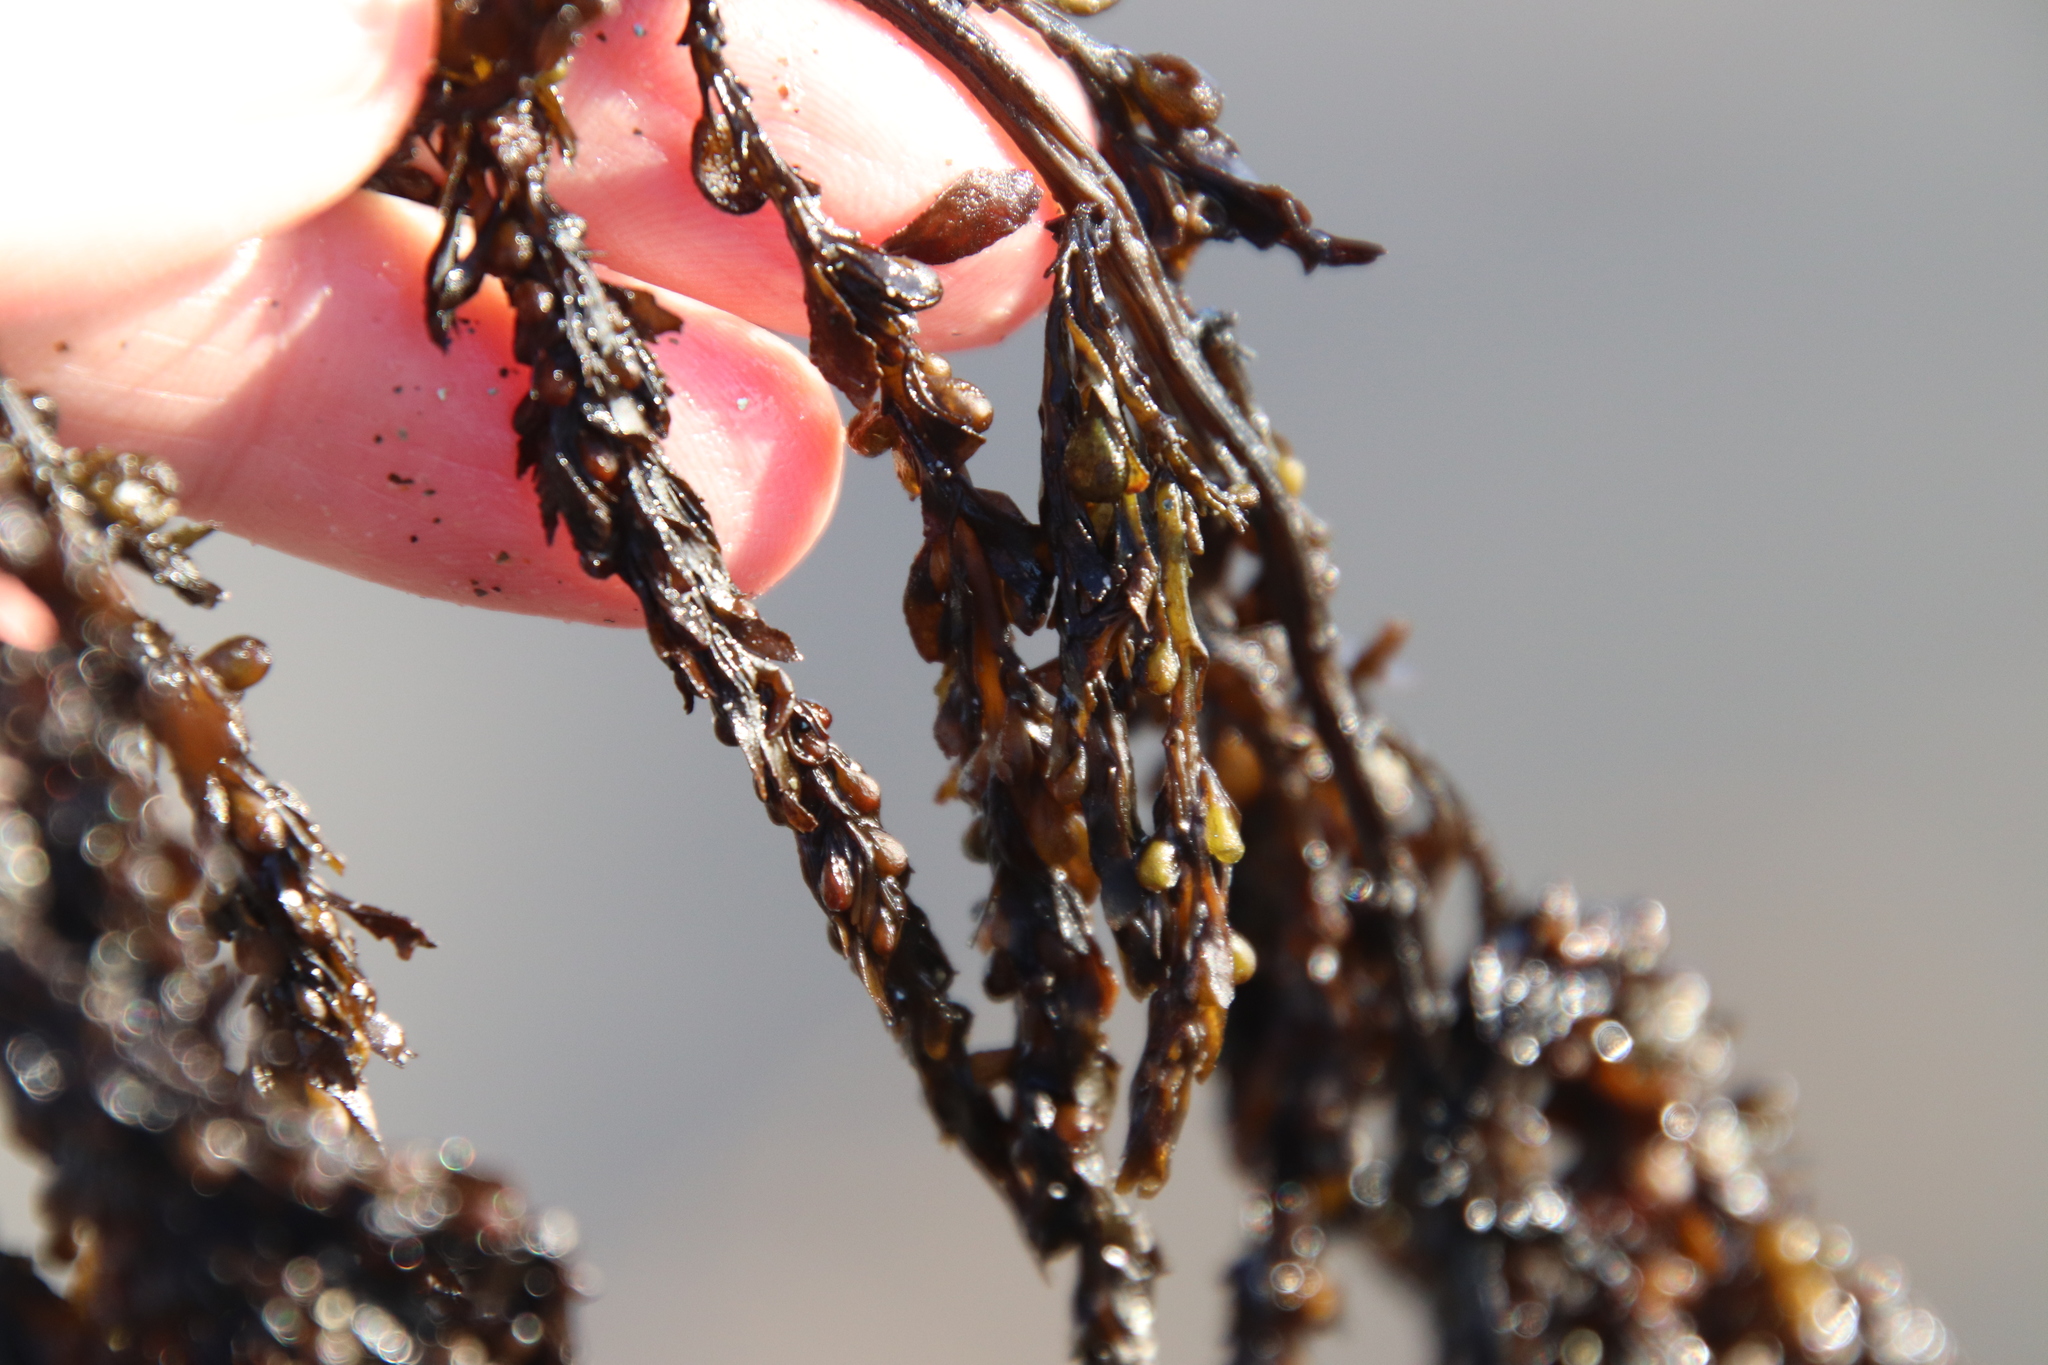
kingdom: Chromista
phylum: Ochrophyta
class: Phaeophyceae
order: Fucales
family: Sargassaceae
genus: Sargassum
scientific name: Sargassum muticum
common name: Japweed
